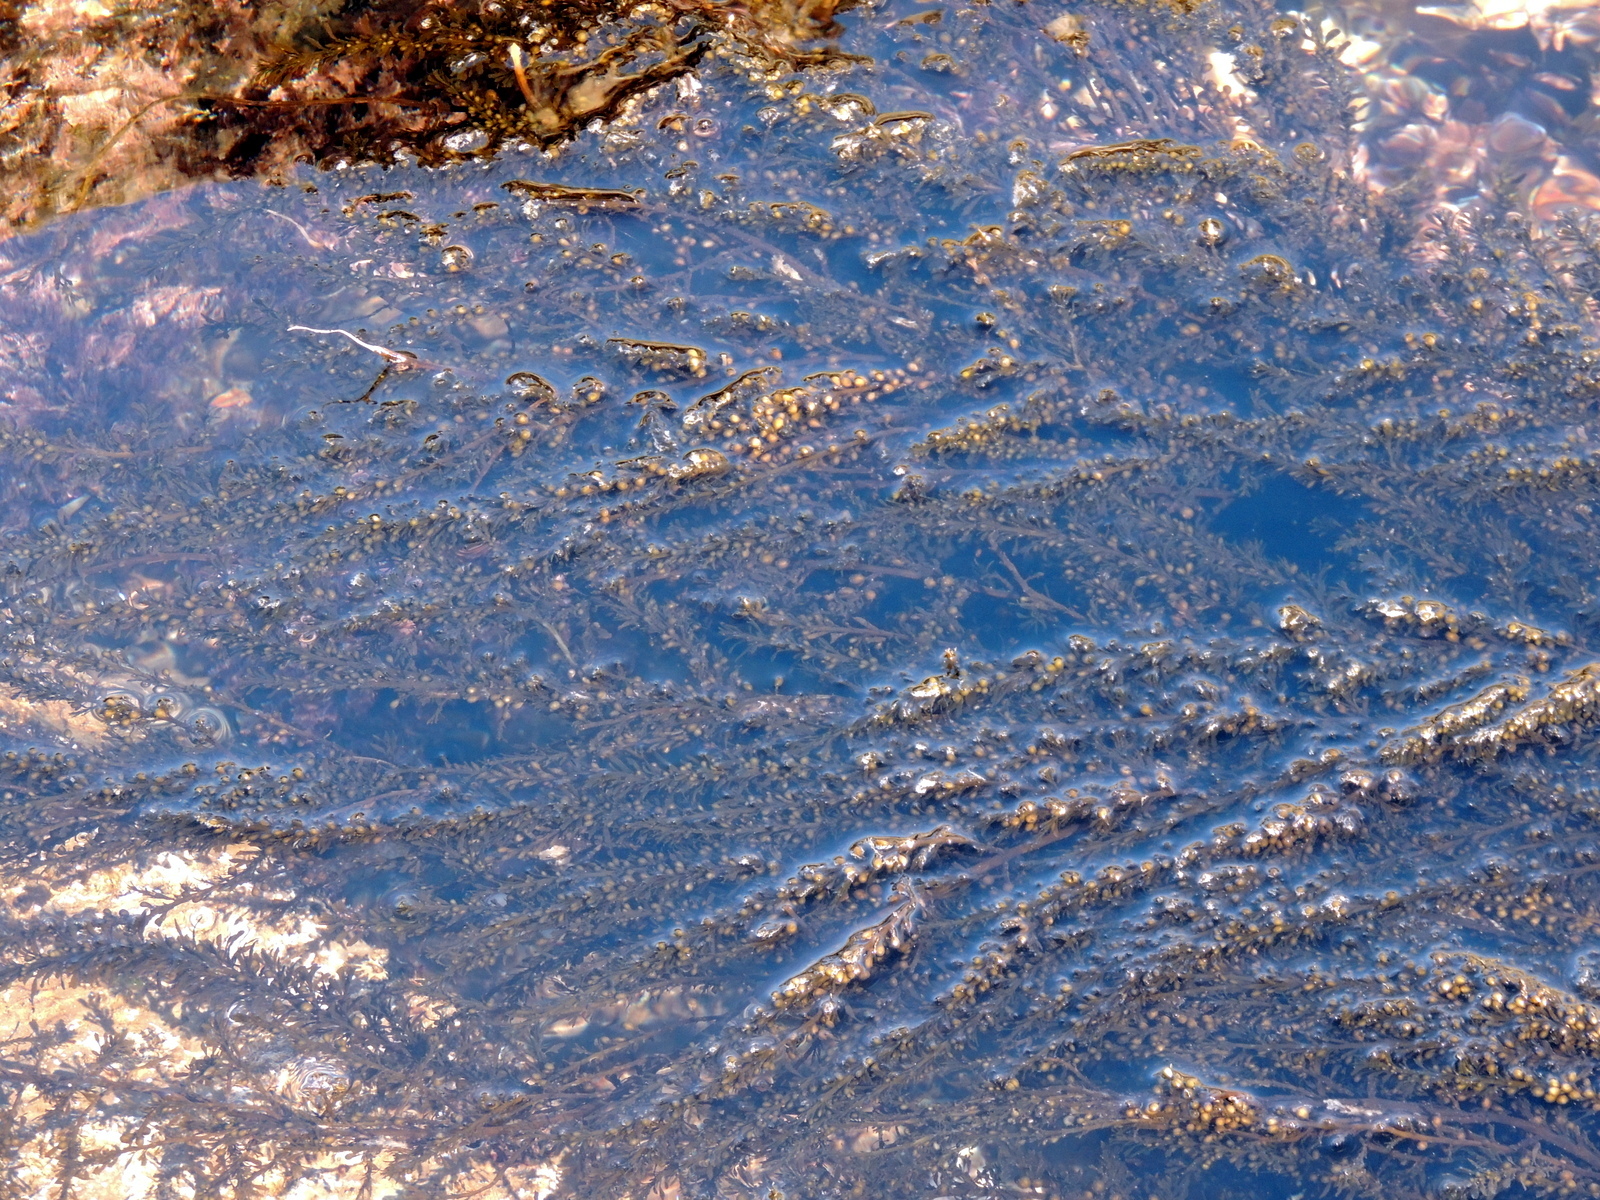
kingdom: Chromista
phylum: Ochrophyta
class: Phaeophyceae
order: Fucales
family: Sargassaceae
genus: Sargassum
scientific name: Sargassum muticum
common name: Japweed
